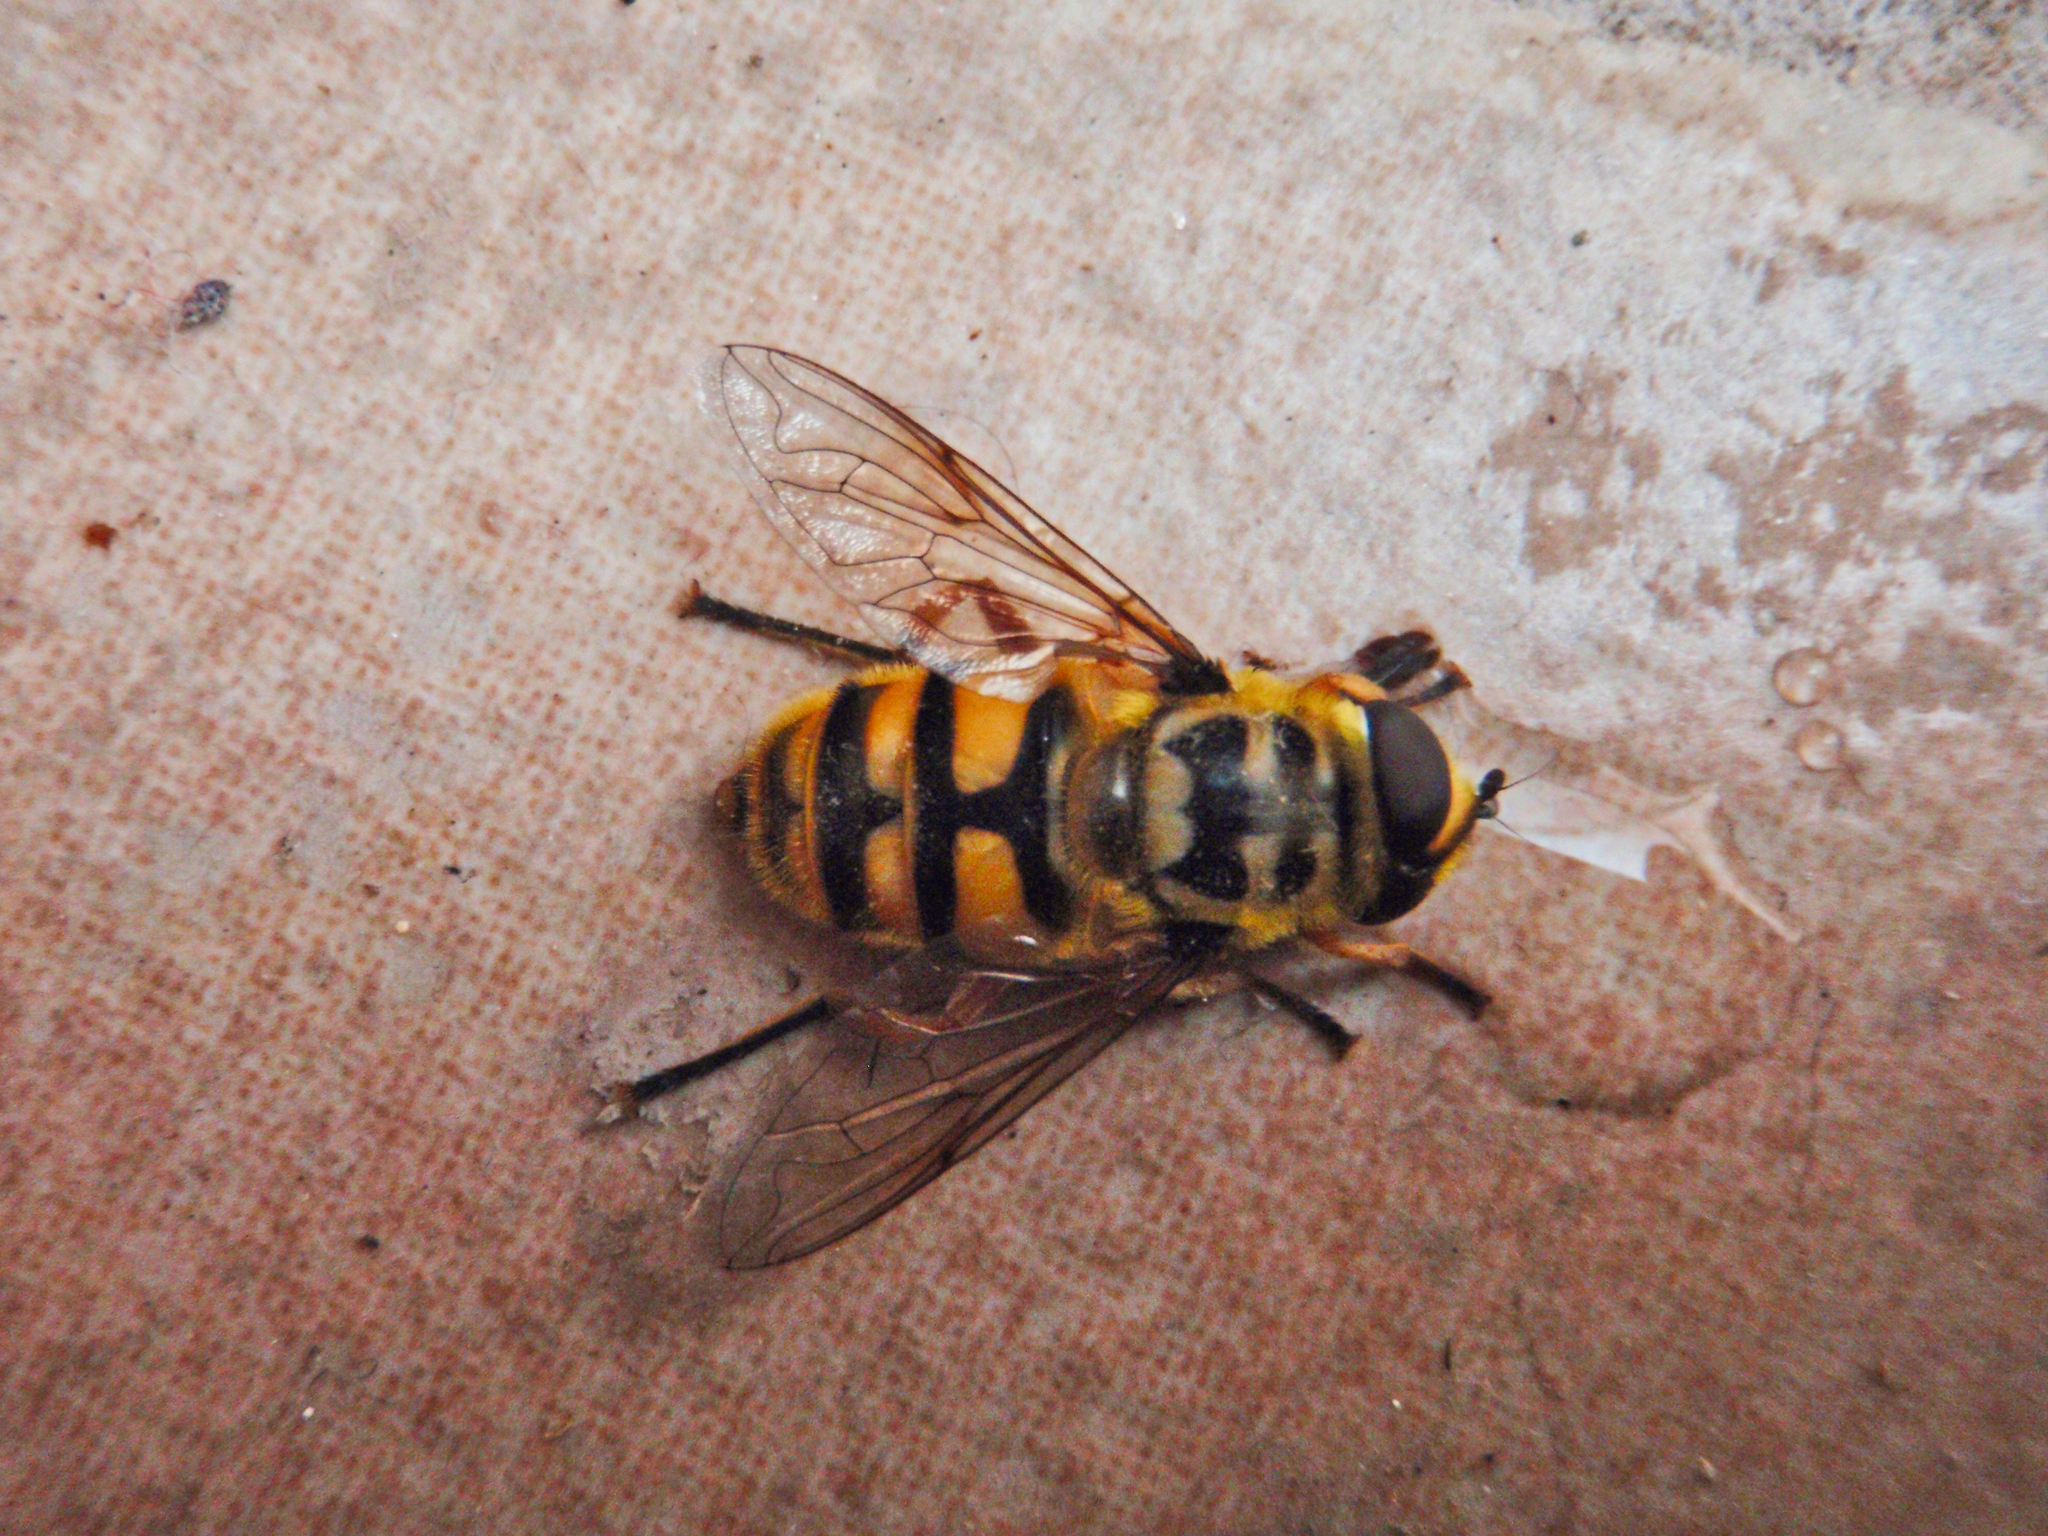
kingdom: Animalia
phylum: Arthropoda
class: Insecta
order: Diptera
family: Syrphidae
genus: Myathropa
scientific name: Myathropa florea
